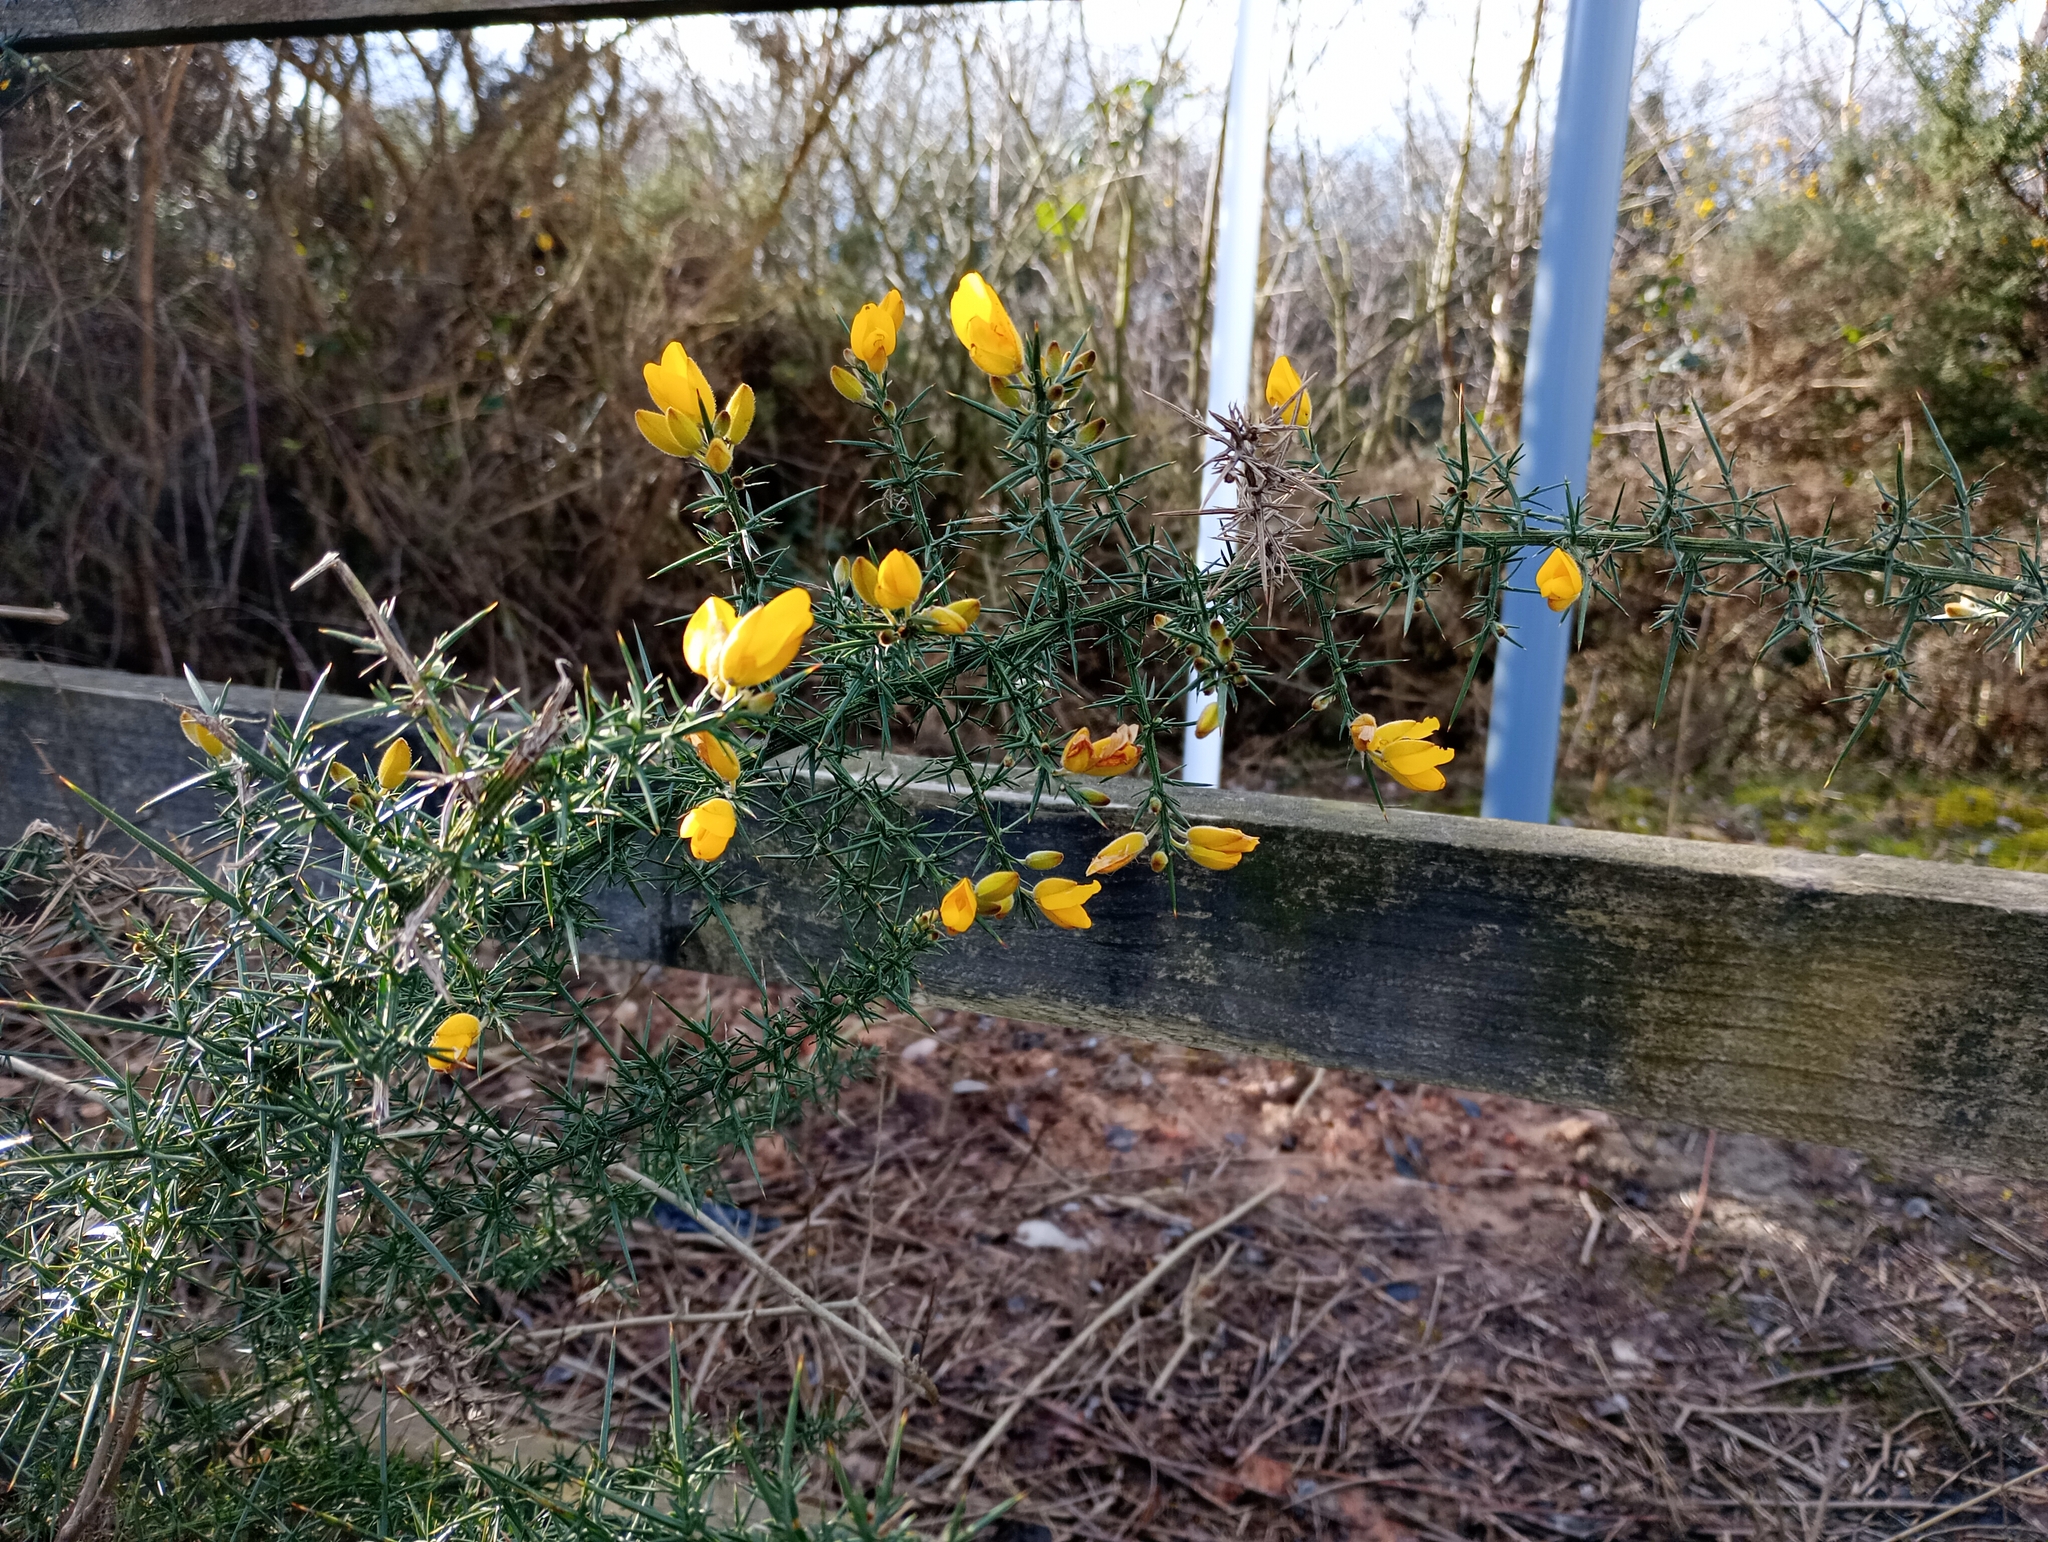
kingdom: Plantae
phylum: Tracheophyta
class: Magnoliopsida
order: Fabales
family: Fabaceae
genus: Ulex
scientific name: Ulex europaeus
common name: Common gorse
